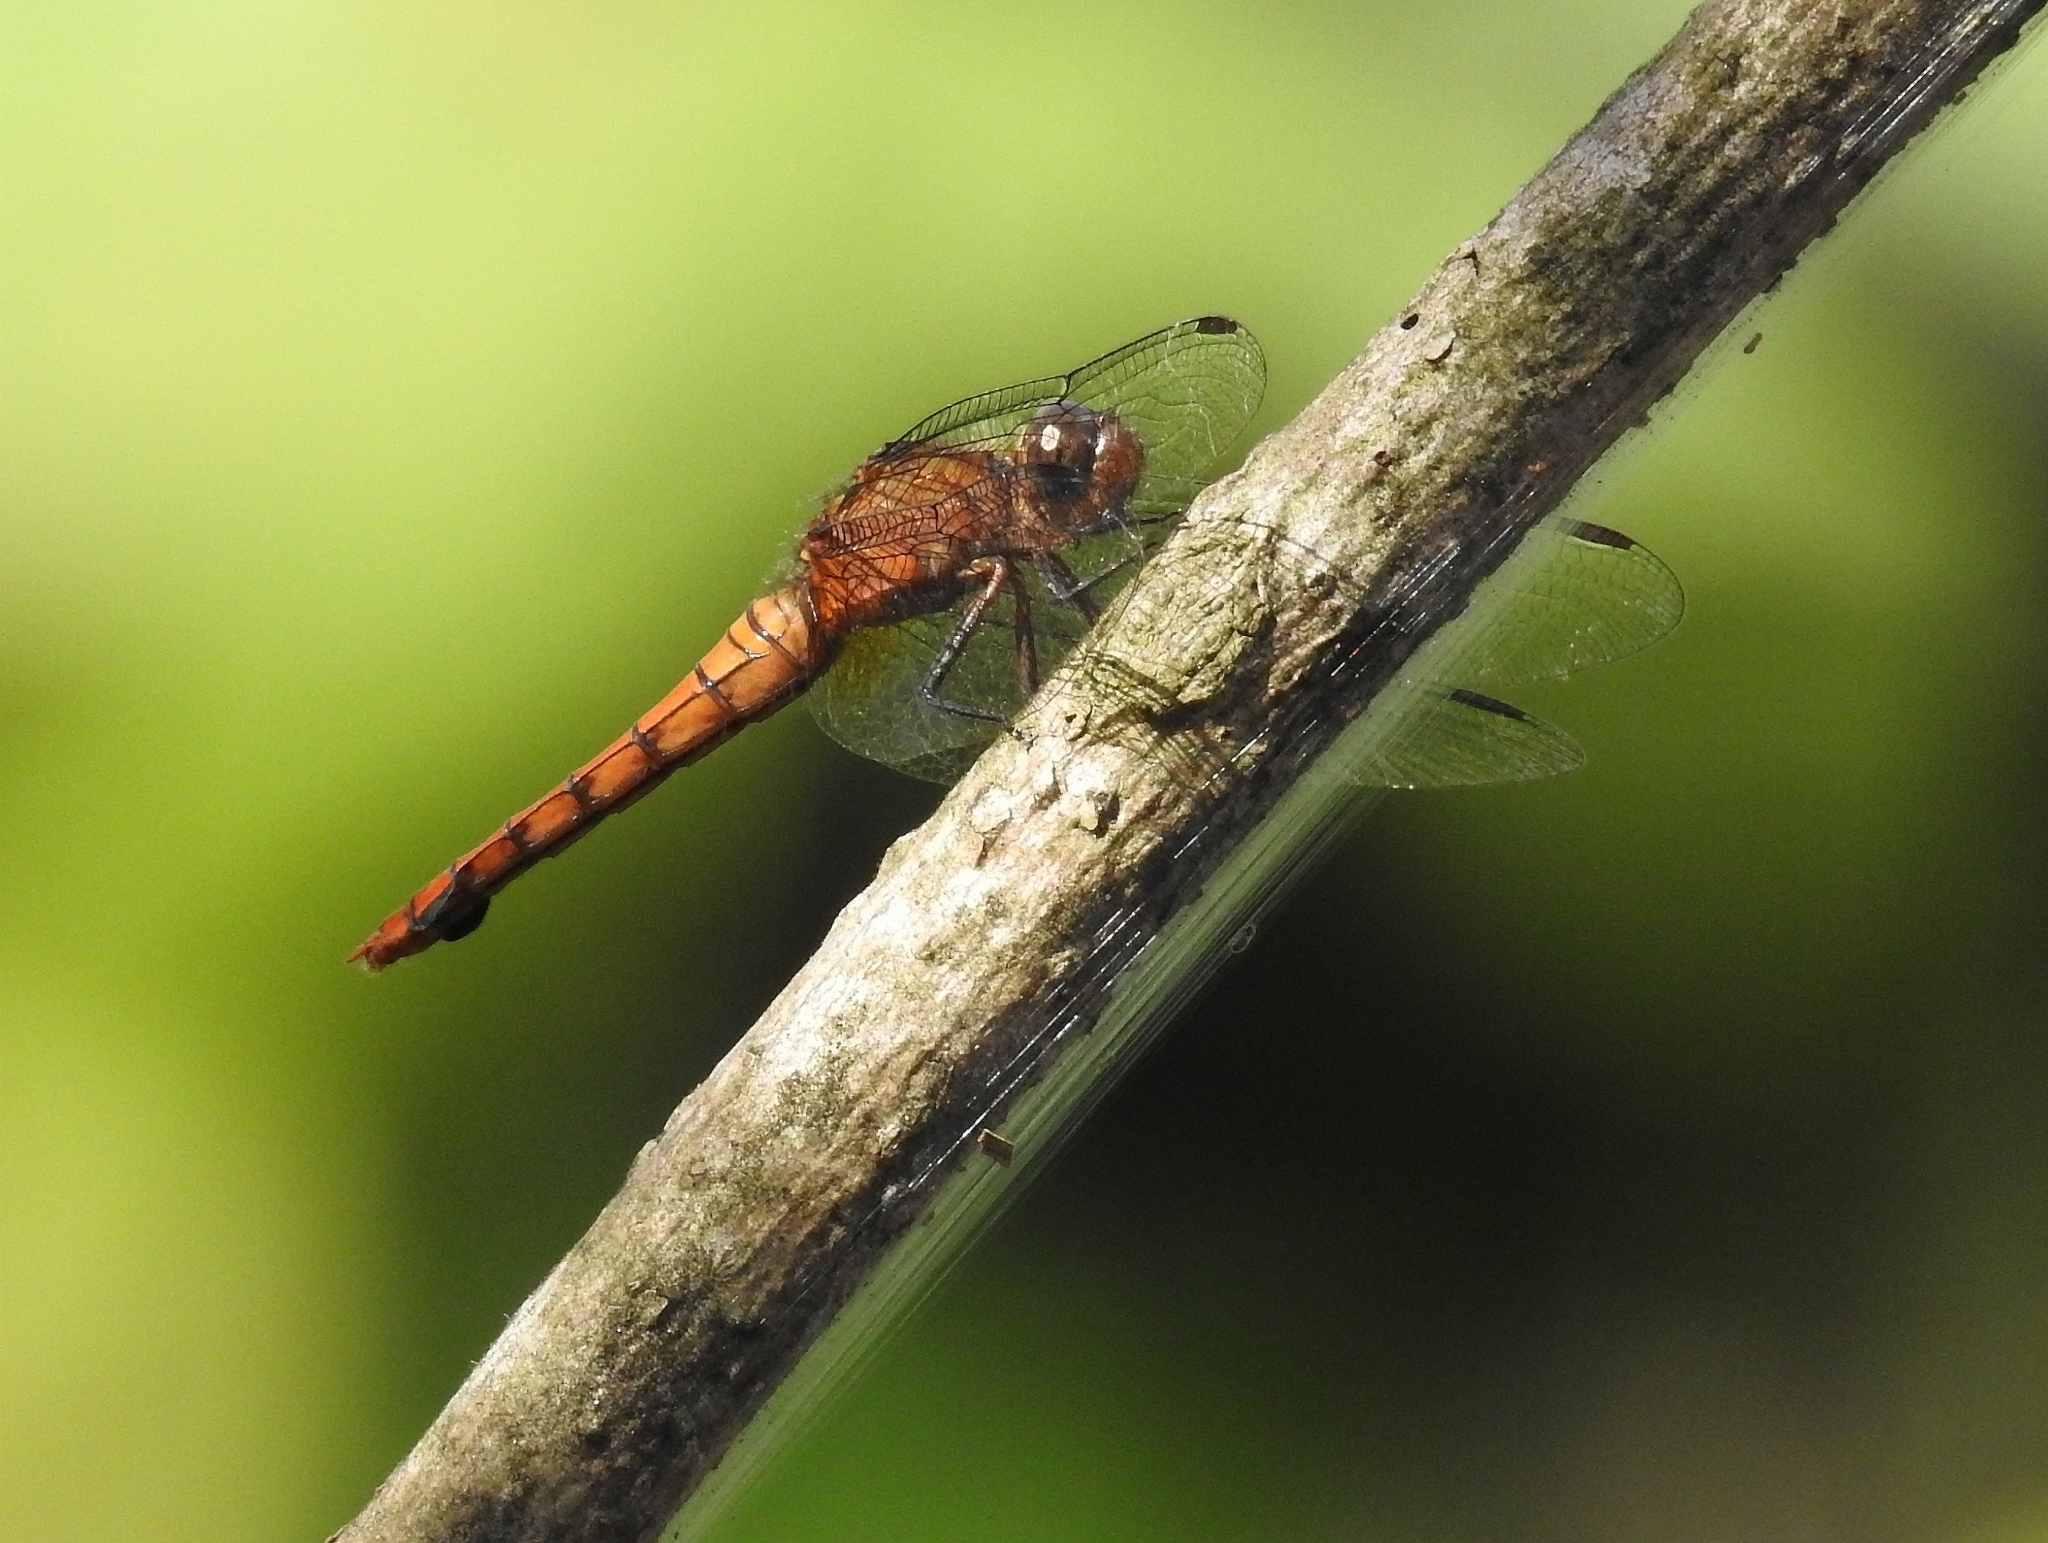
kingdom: Animalia
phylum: Arthropoda
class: Insecta
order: Odonata
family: Libellulidae
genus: Orthetrum
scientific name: Orthetrum chrysis
